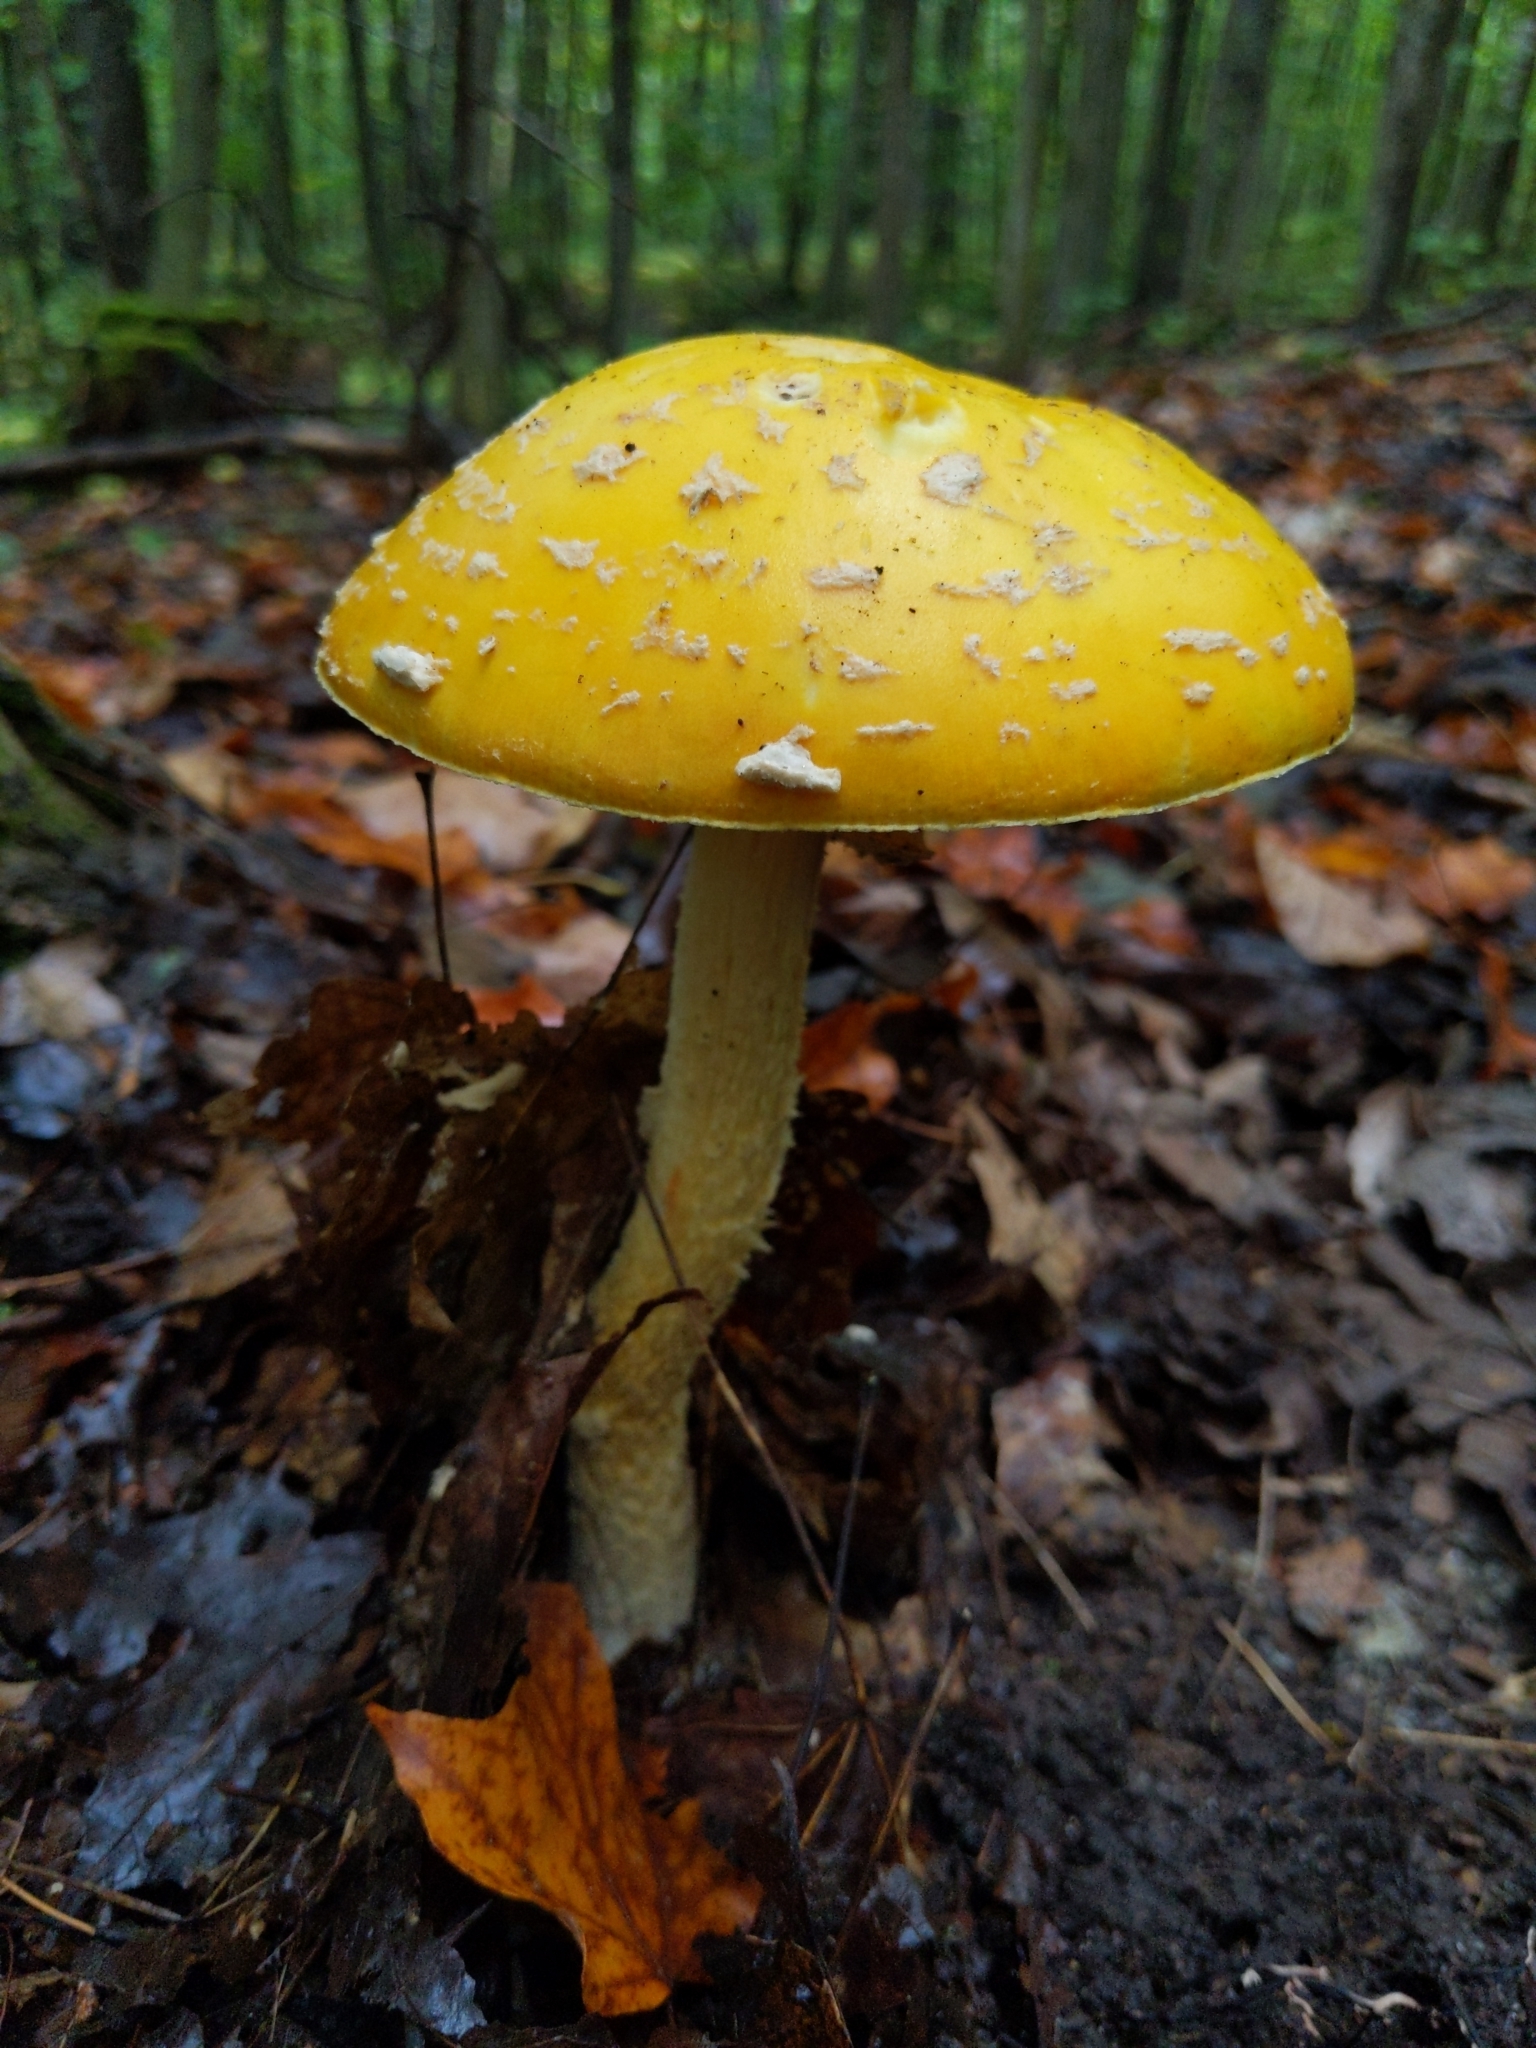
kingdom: Fungi
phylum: Basidiomycota
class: Agaricomycetes
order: Agaricales
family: Amanitaceae
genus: Amanita
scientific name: Amanita muscaria
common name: Fly agaric
